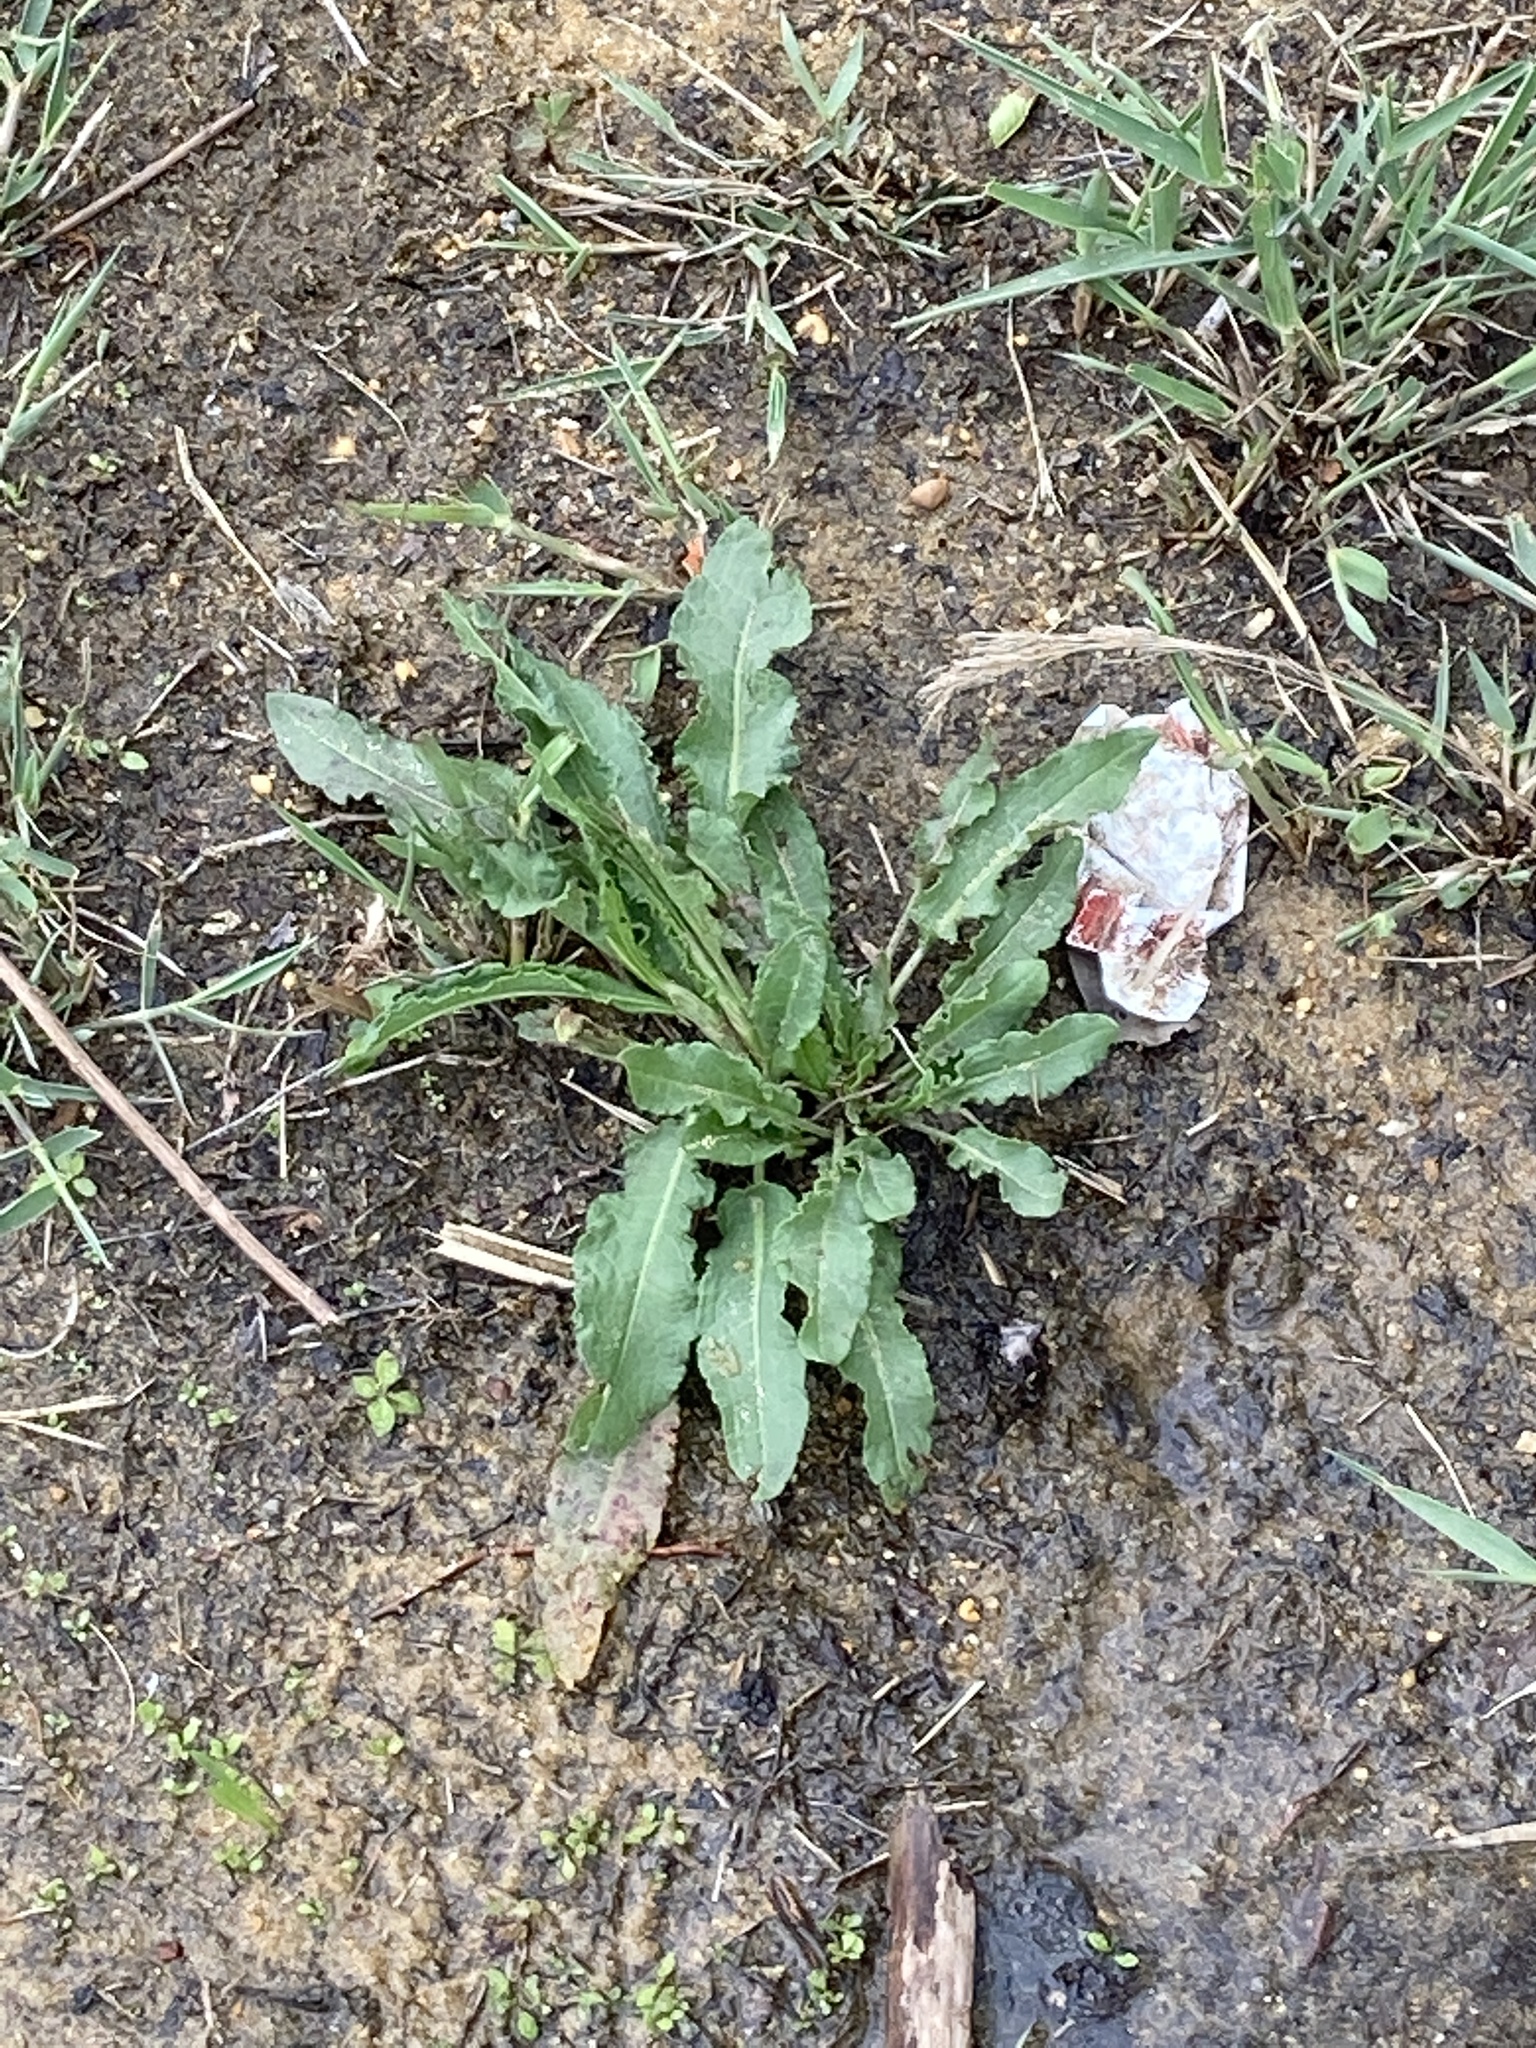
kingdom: Plantae
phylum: Tracheophyta
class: Magnoliopsida
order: Caryophyllales
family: Polygonaceae
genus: Rumex
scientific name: Rumex crispus
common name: Curled dock
